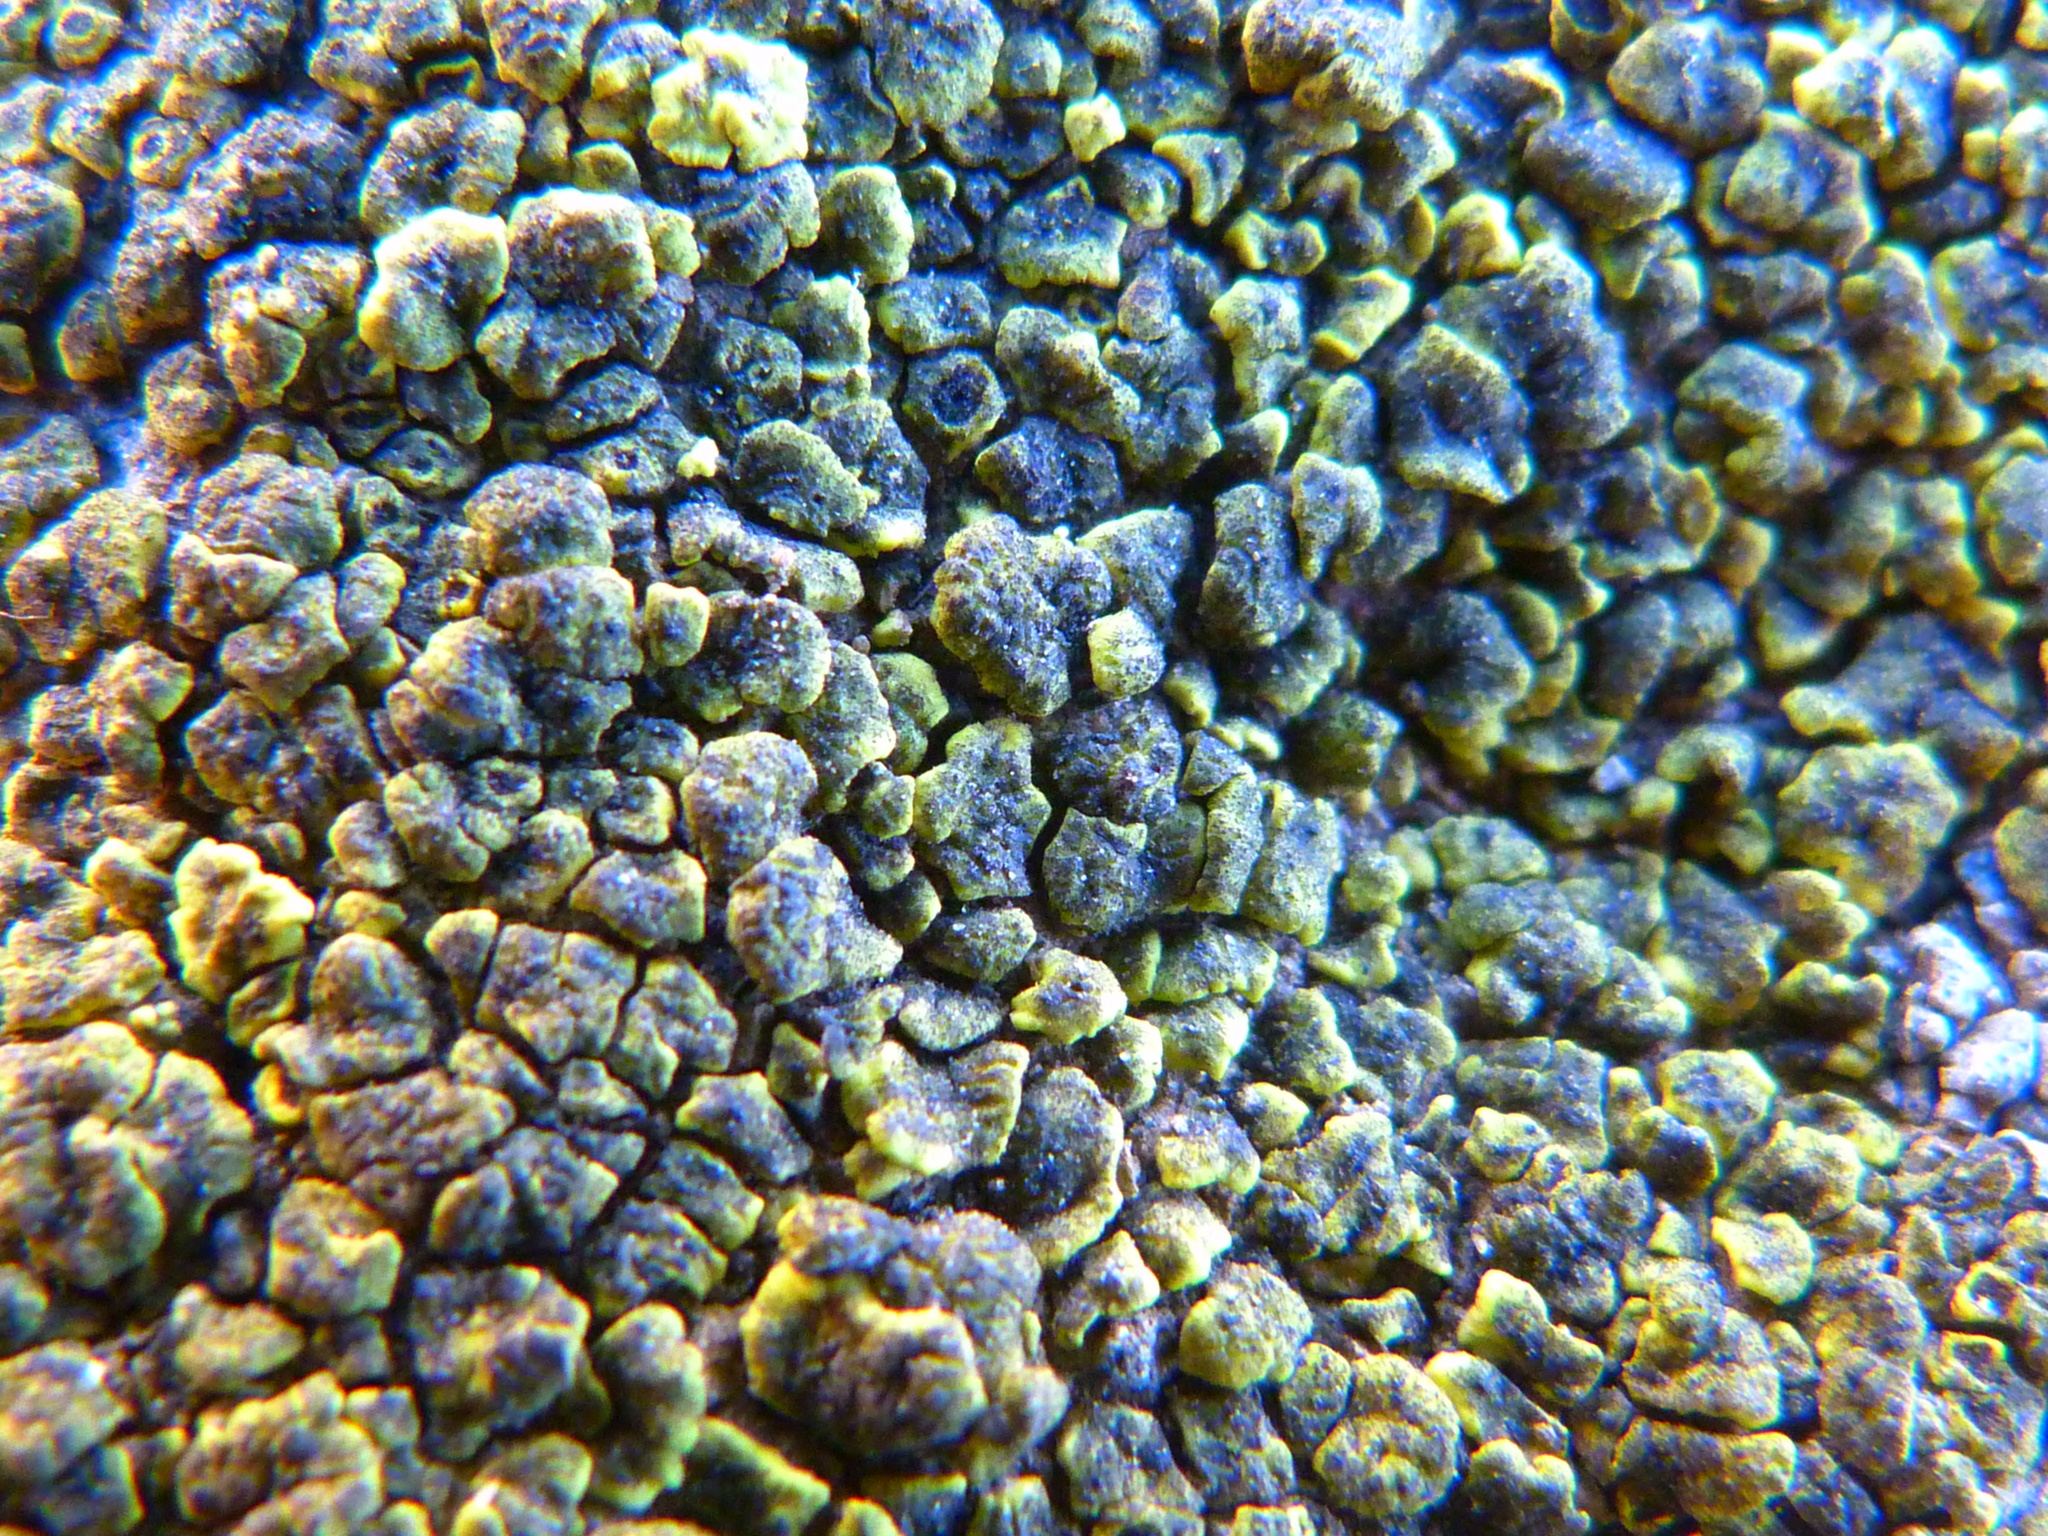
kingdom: Fungi
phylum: Ascomycota
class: Lecanoromycetes
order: Acarosporales
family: Acarosporaceae
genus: Acarospora
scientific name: Acarospora socialis
